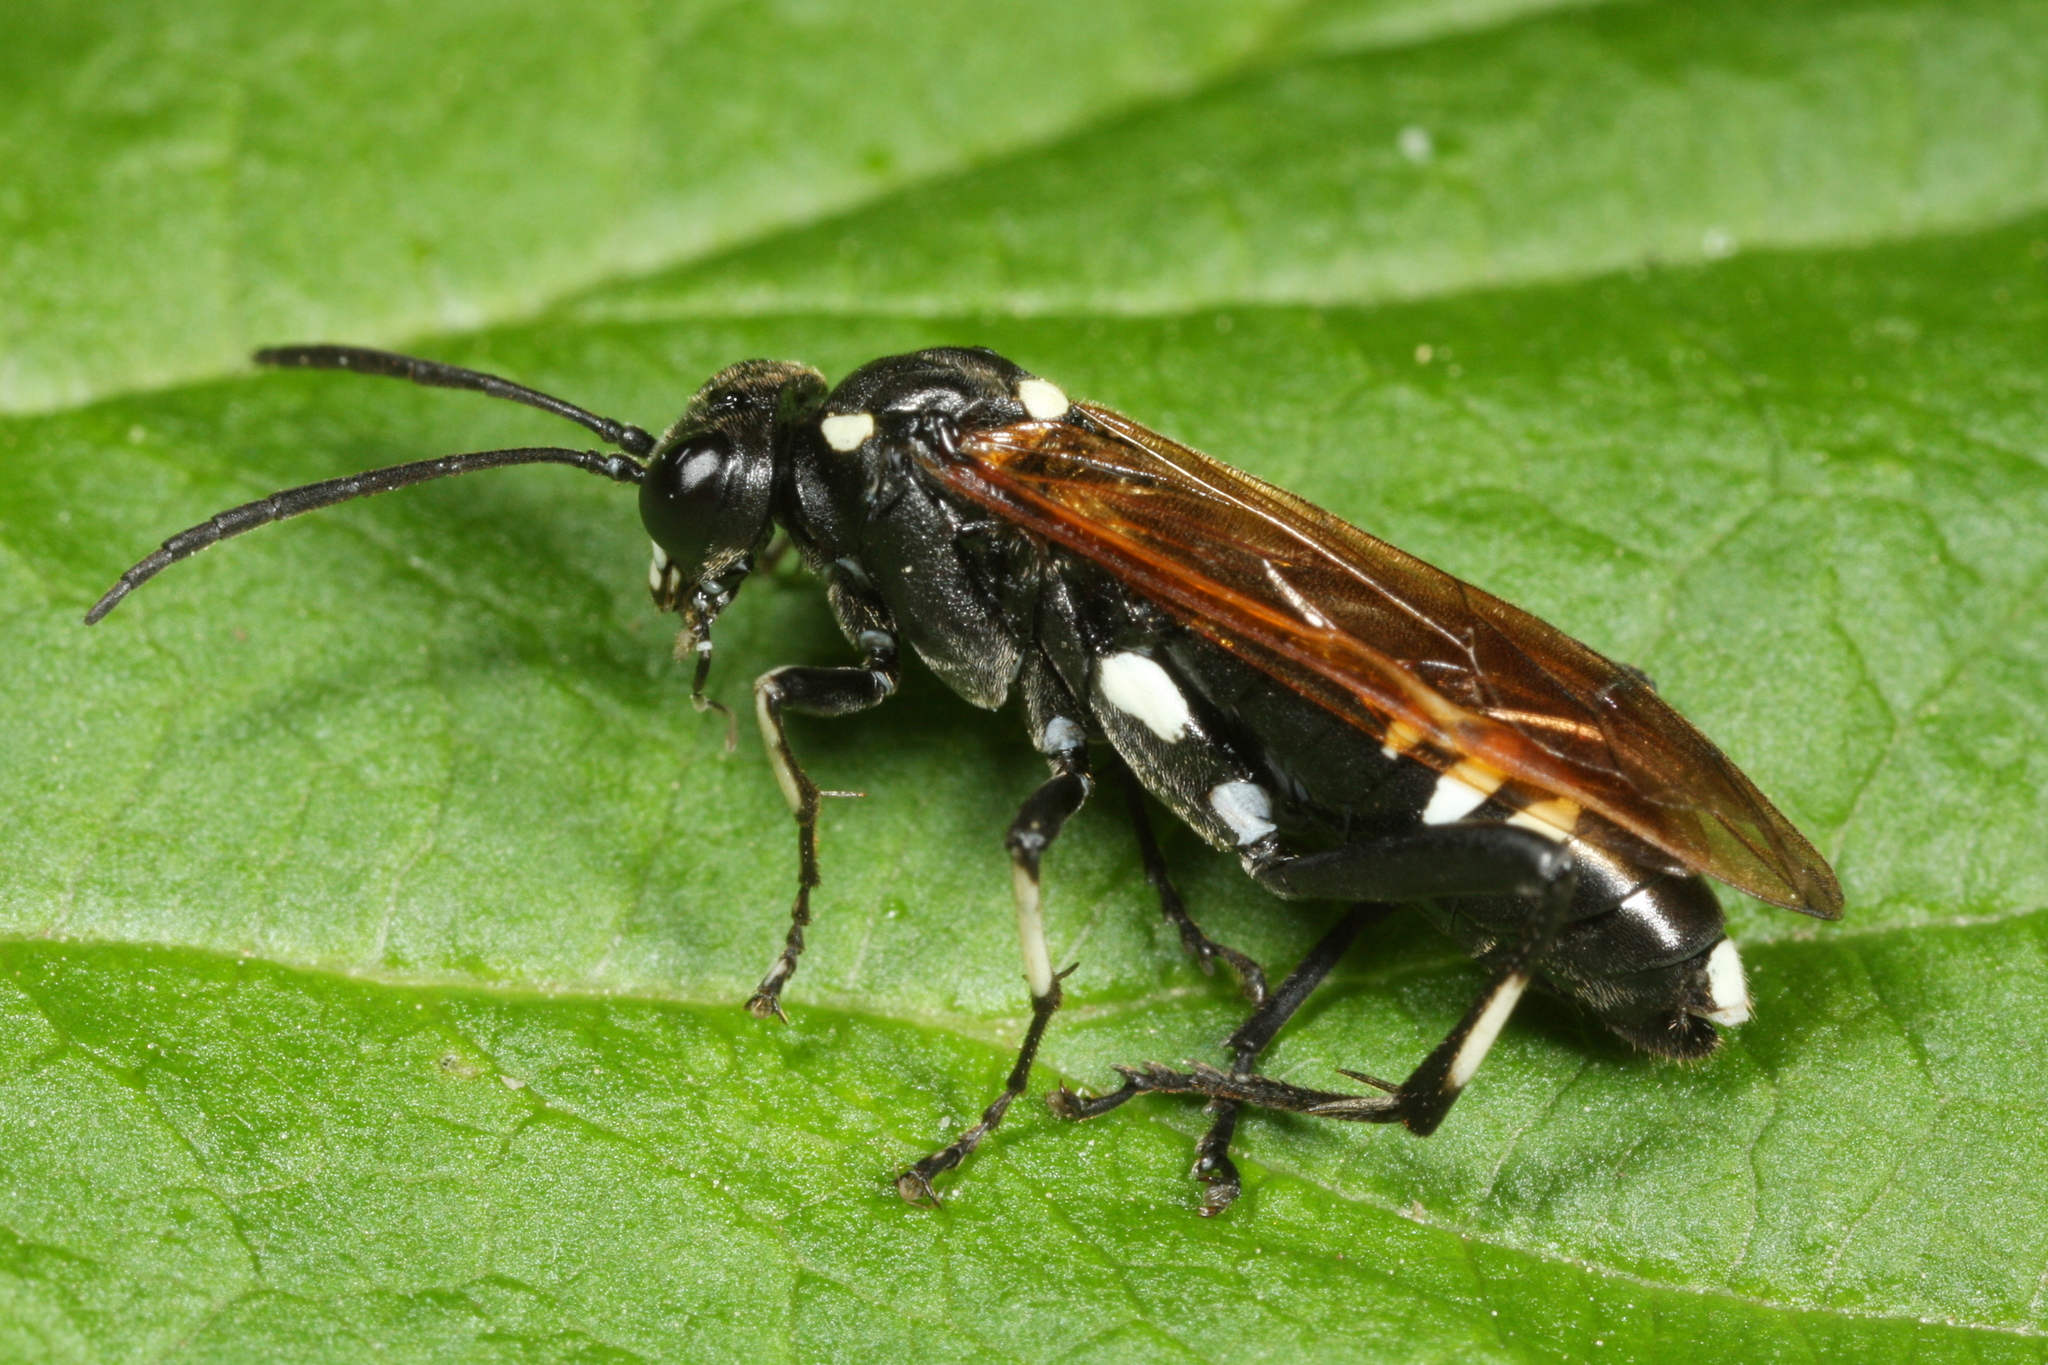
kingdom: Animalia
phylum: Arthropoda
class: Insecta
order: Hymenoptera
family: Tenthredinidae
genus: Macrophya
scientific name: Macrophya duodecimpunctata
